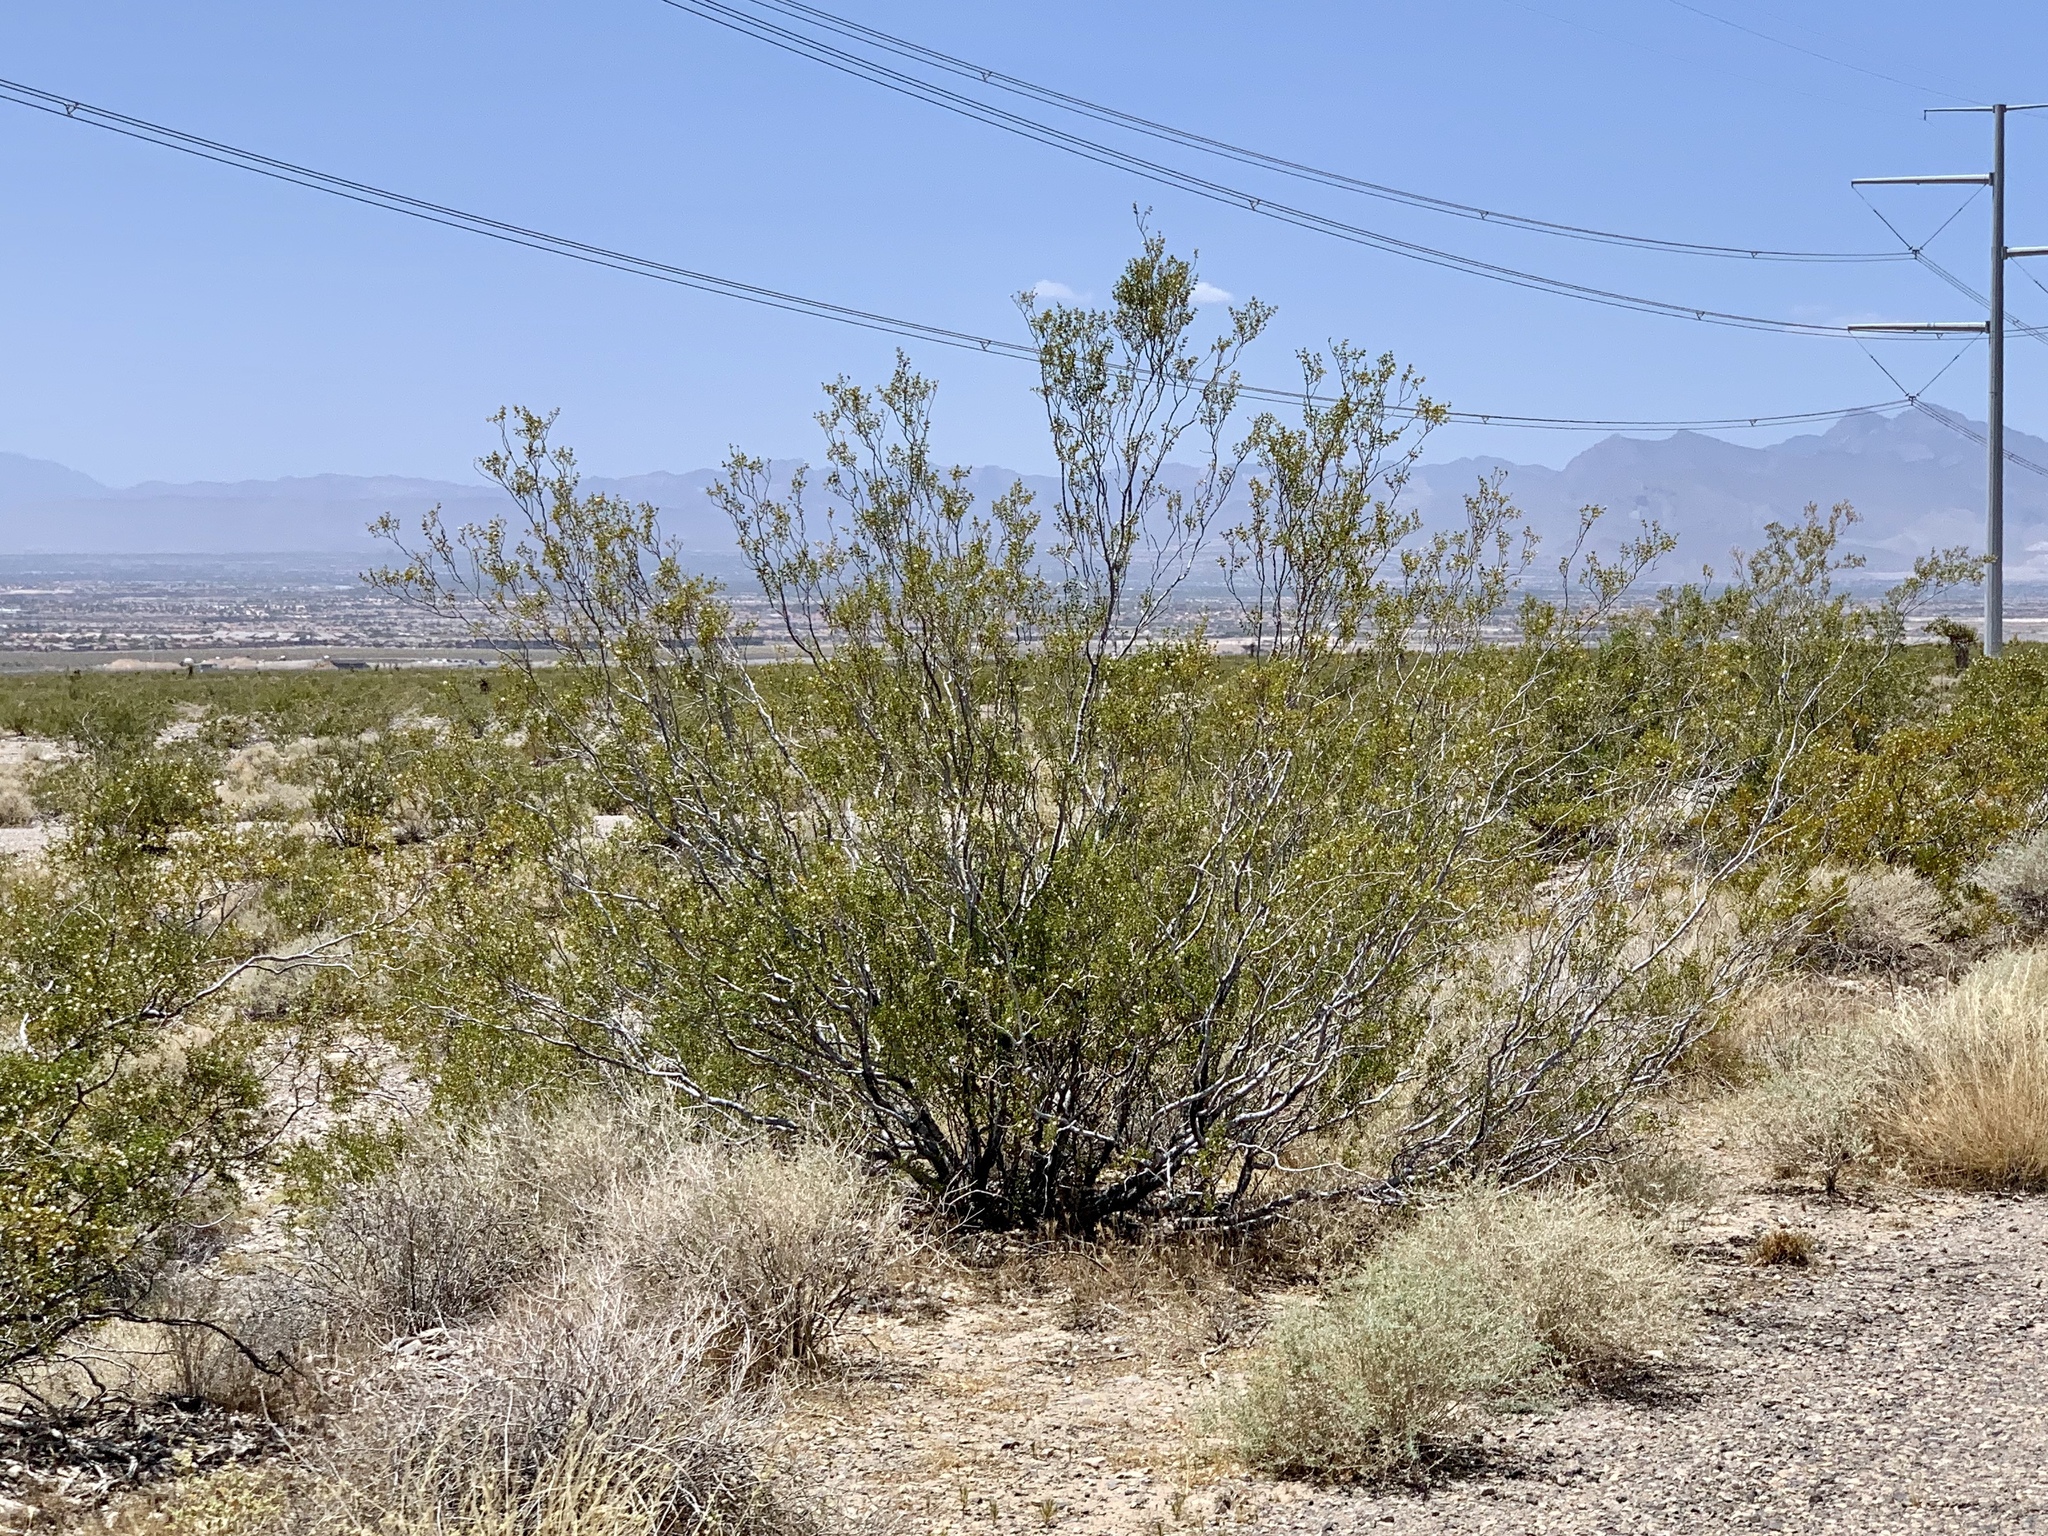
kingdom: Plantae
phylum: Tracheophyta
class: Magnoliopsida
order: Zygophyllales
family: Zygophyllaceae
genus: Larrea
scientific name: Larrea tridentata
